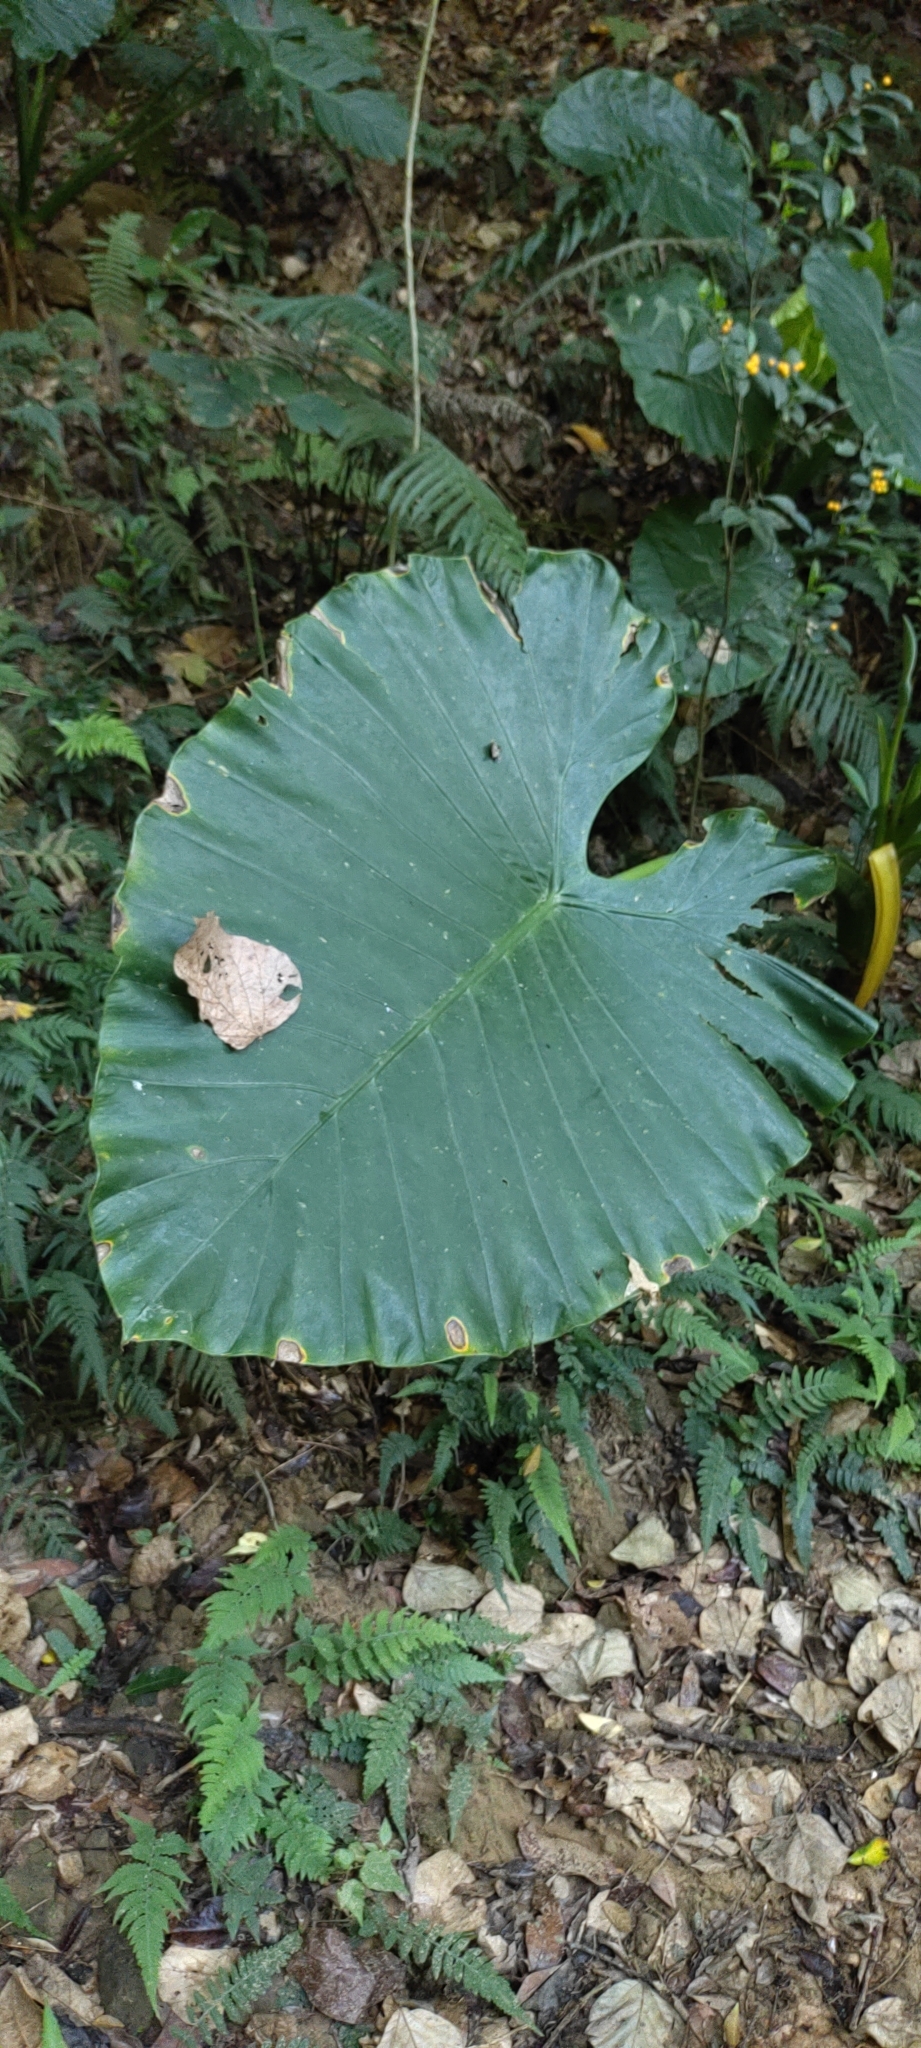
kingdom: Plantae
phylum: Tracheophyta
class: Liliopsida
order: Alismatales
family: Araceae
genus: Alocasia
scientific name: Alocasia odora
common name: Asian taro
